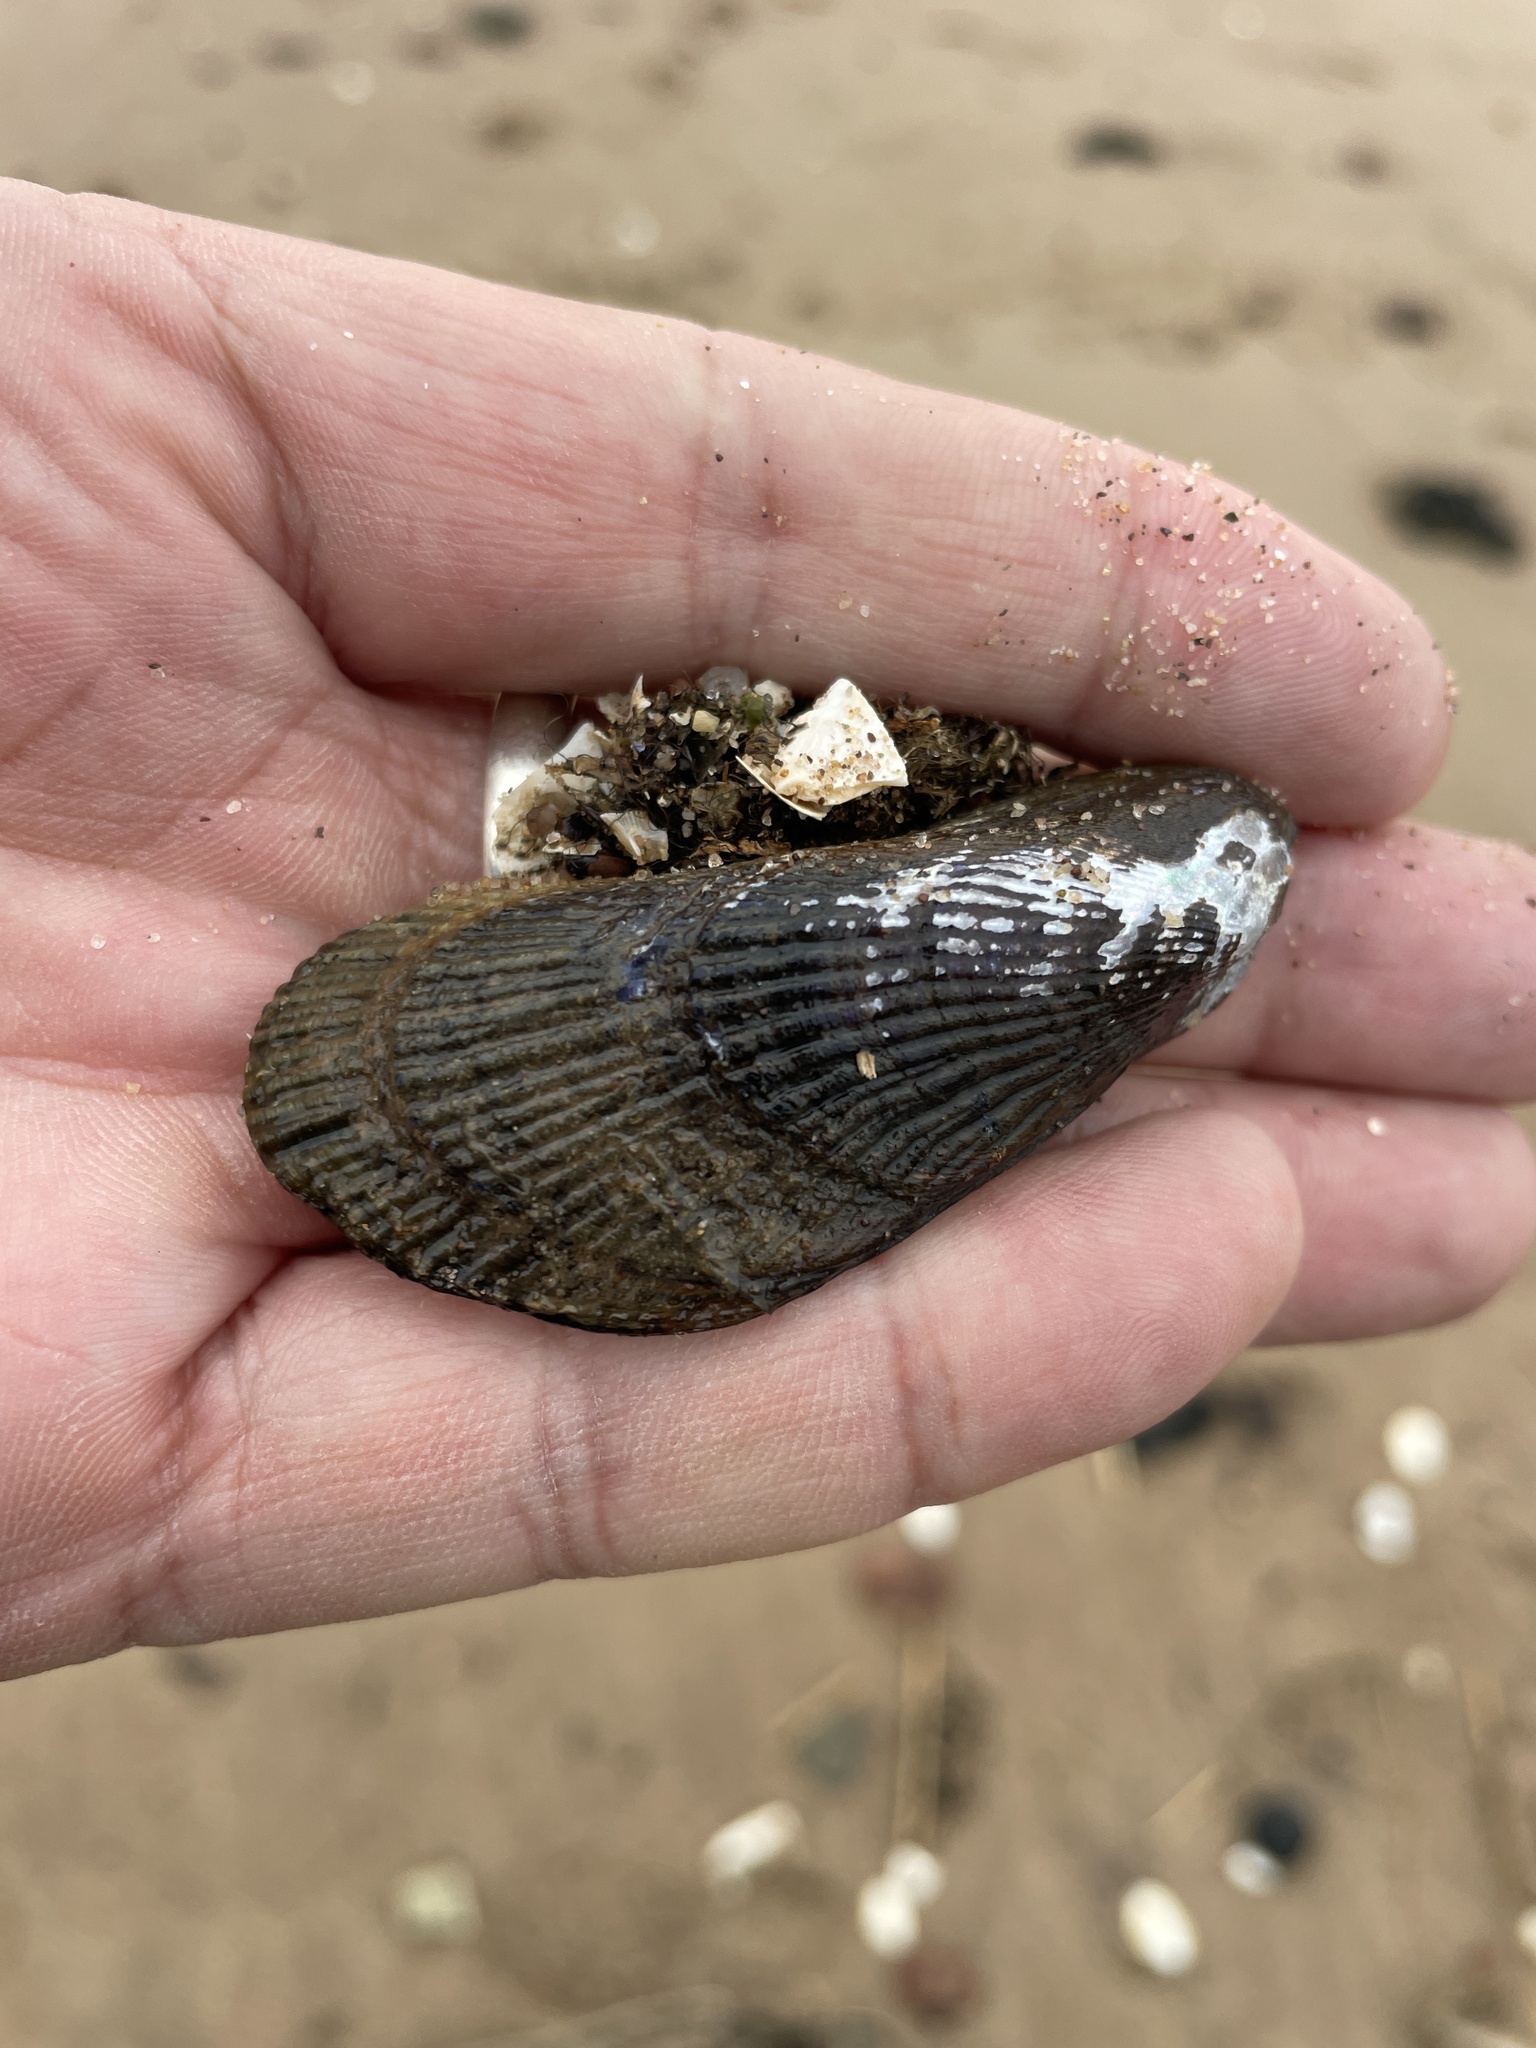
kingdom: Animalia
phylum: Mollusca
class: Bivalvia
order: Mytilida
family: Mytilidae
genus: Geukensia
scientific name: Geukensia demissa
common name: Ribbed mussel
